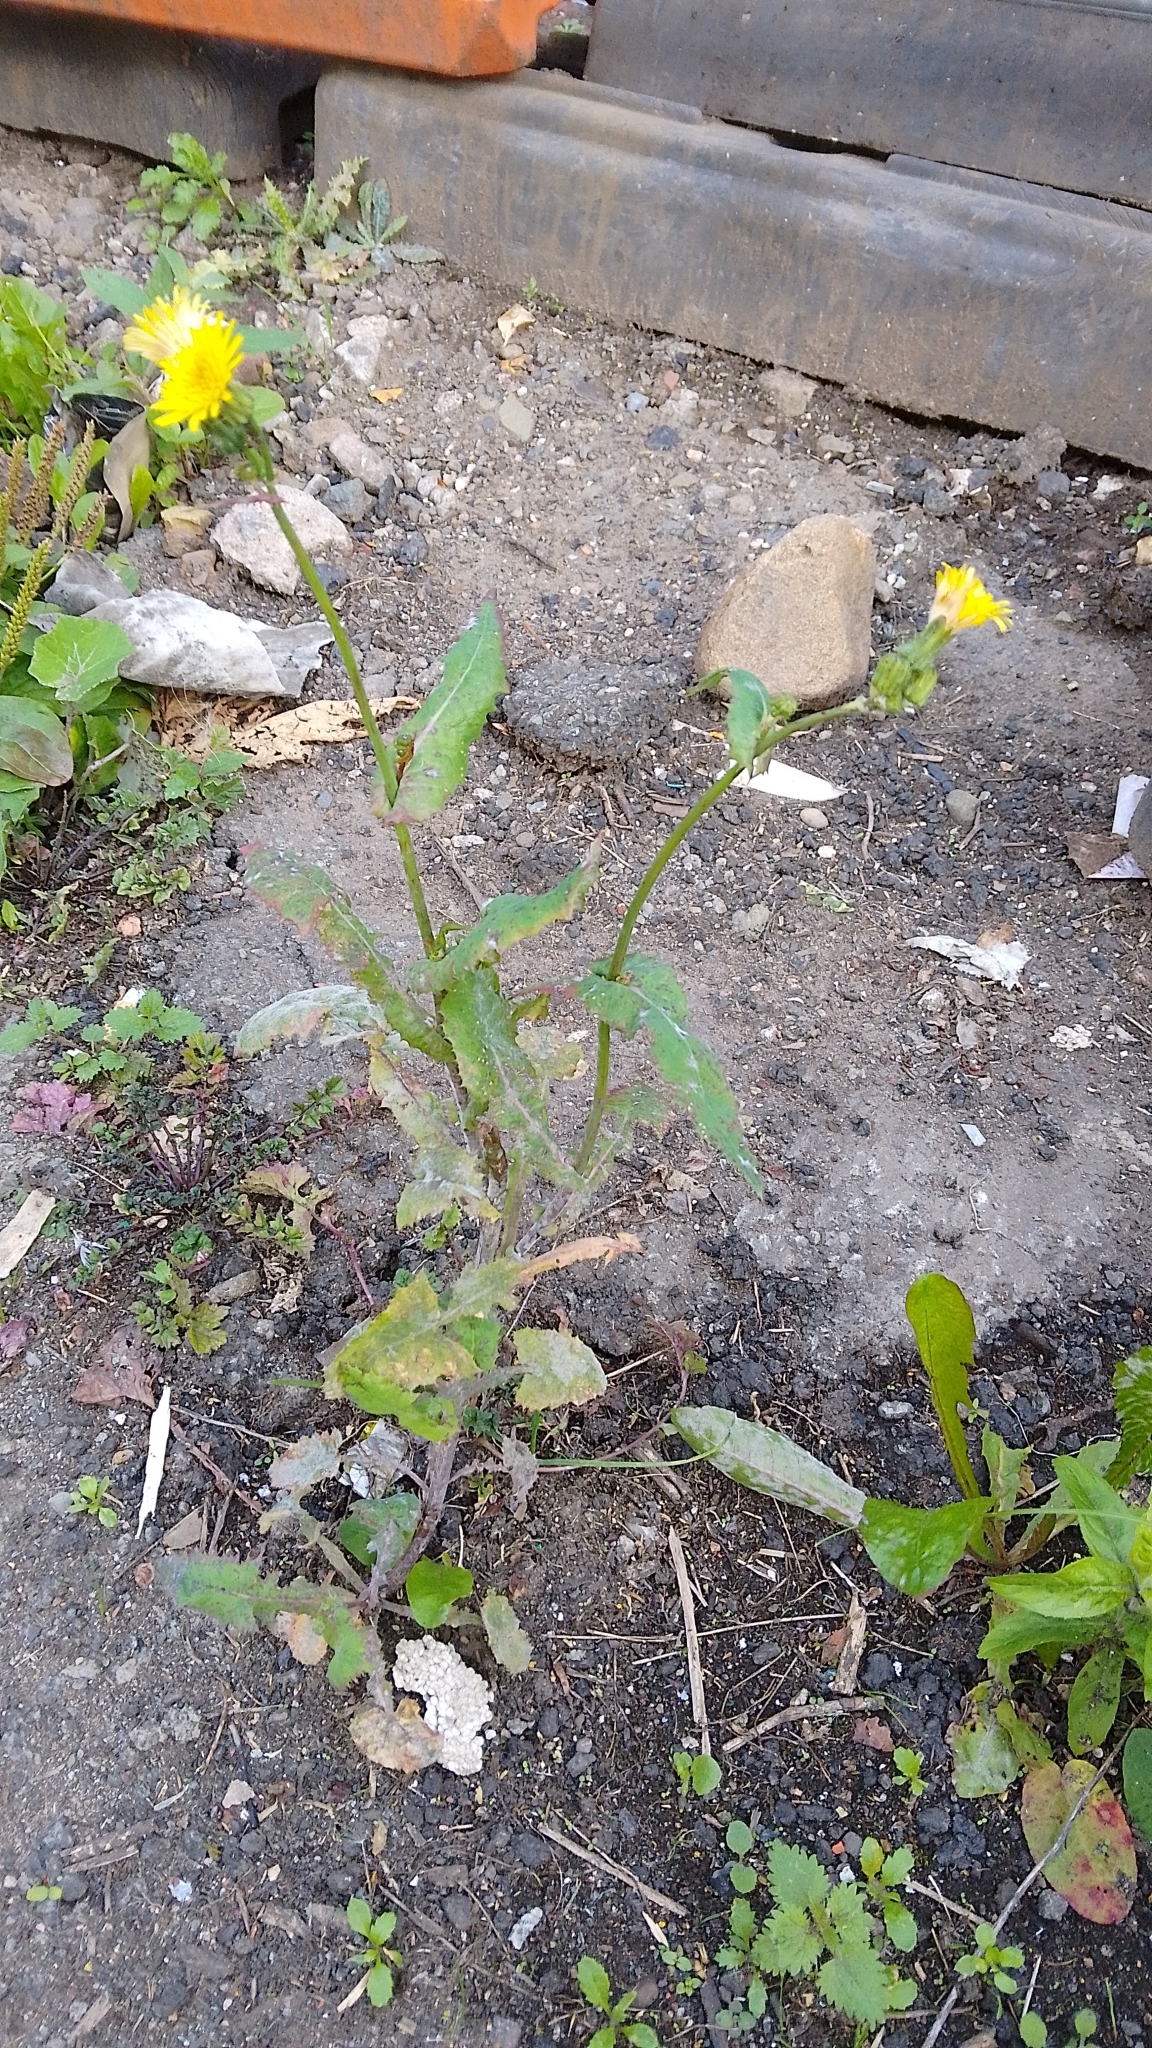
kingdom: Plantae
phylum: Tracheophyta
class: Magnoliopsida
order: Asterales
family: Asteraceae
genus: Sonchus
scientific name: Sonchus oleraceus
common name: Common sowthistle
